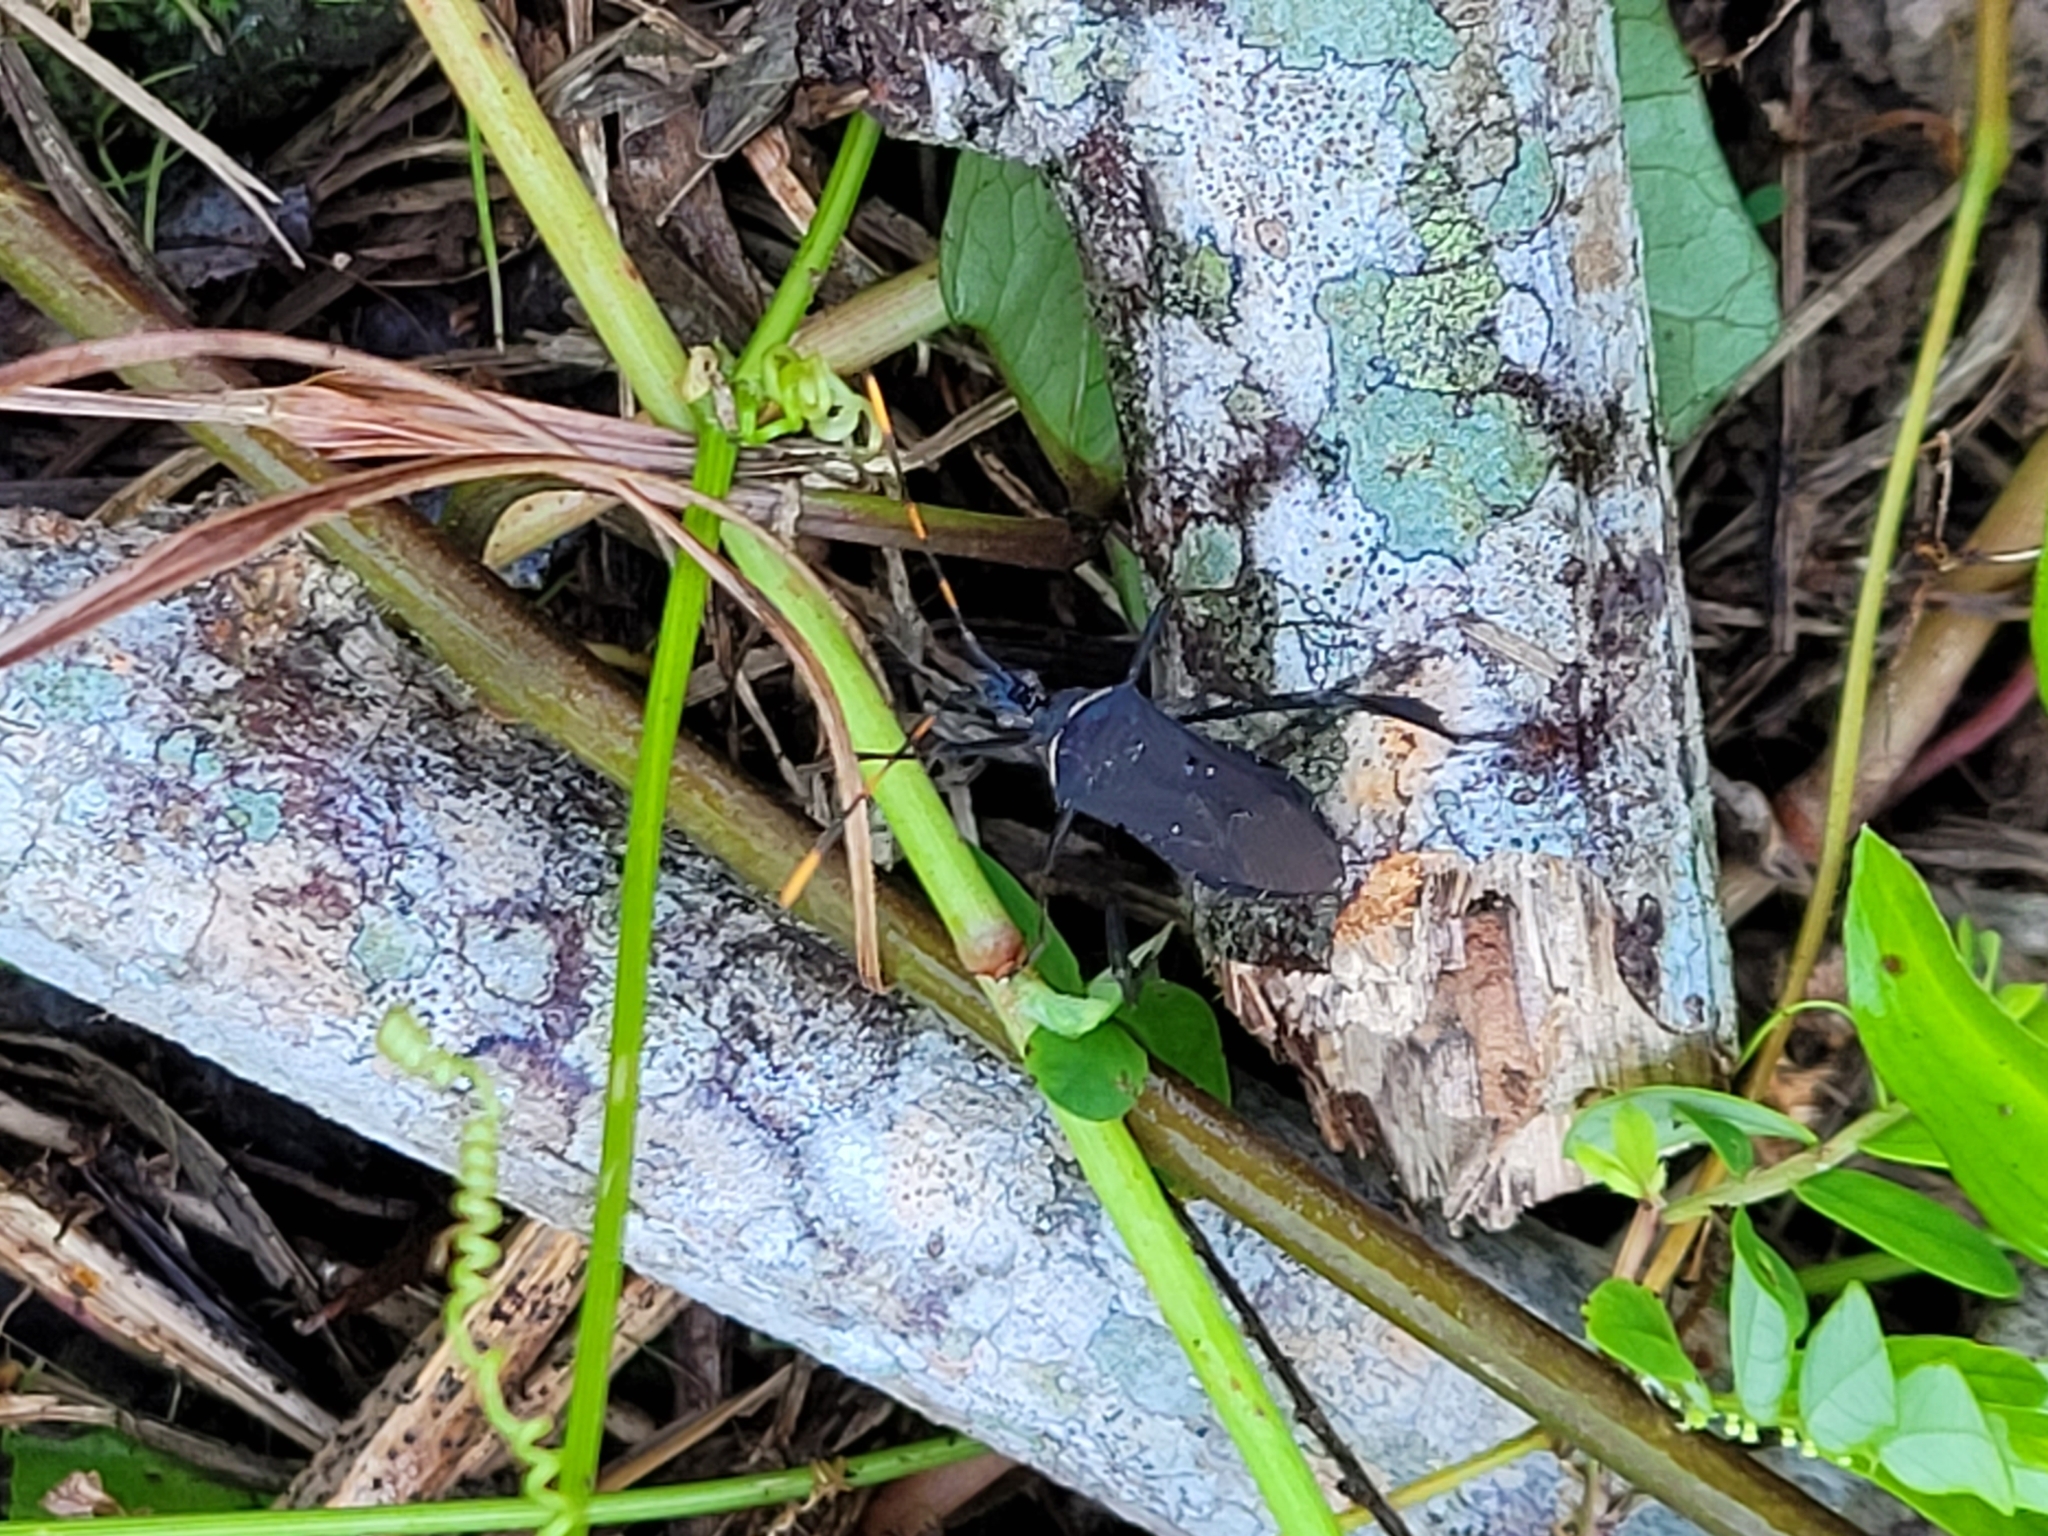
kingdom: Animalia
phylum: Arthropoda
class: Insecta
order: Hemiptera
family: Coreidae
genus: Leptoglossus
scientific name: Leptoglossus gonagra
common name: Citron bug
